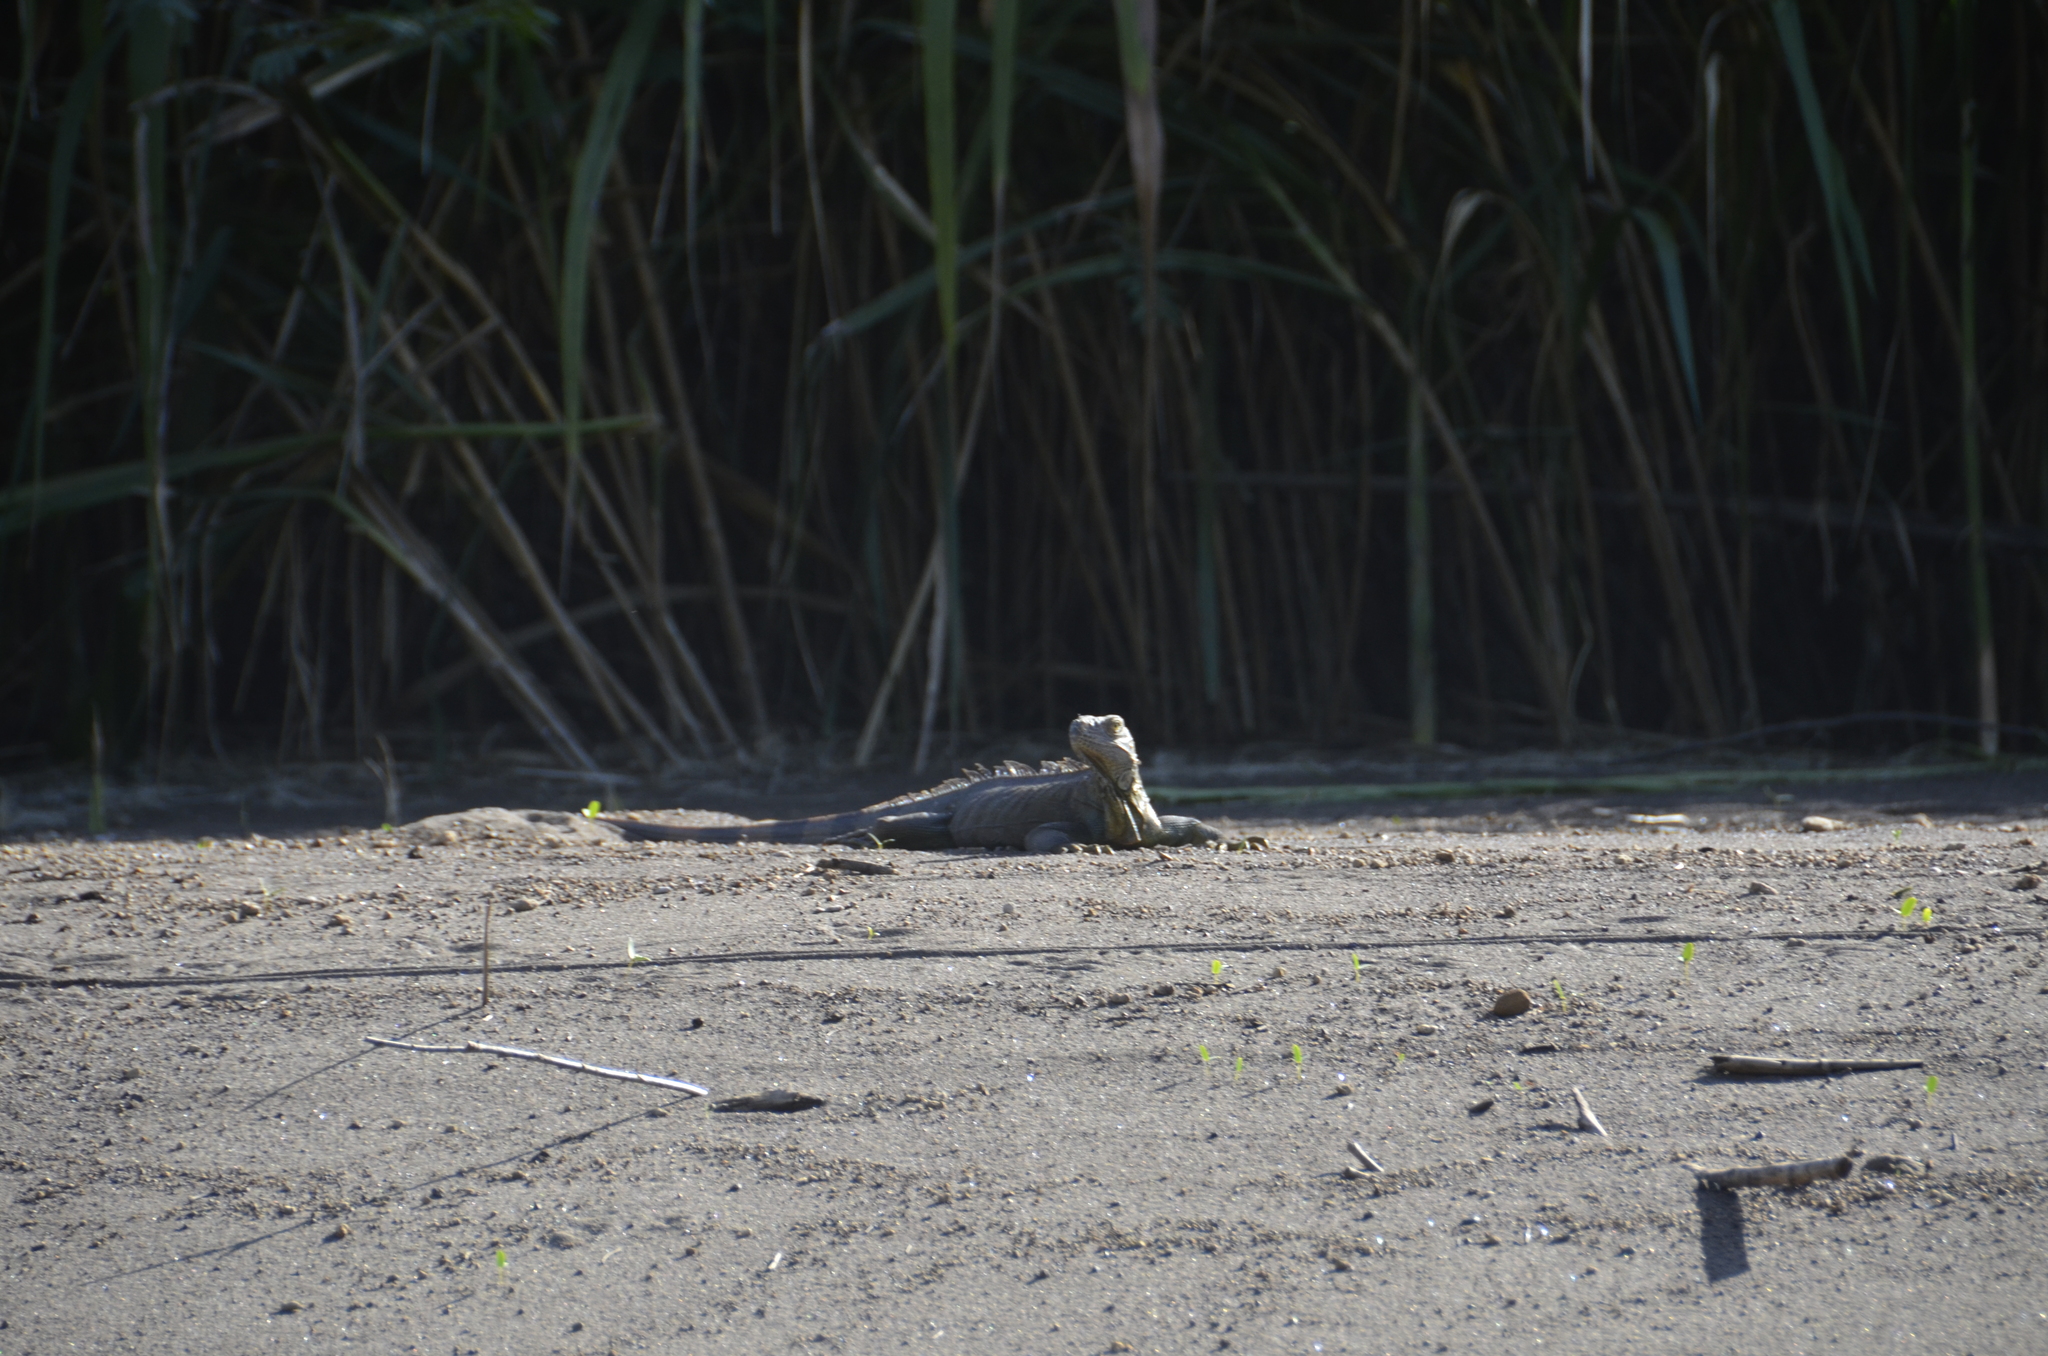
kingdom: Animalia
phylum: Chordata
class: Squamata
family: Iguanidae
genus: Iguana
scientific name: Iguana iguana
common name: Green iguana
